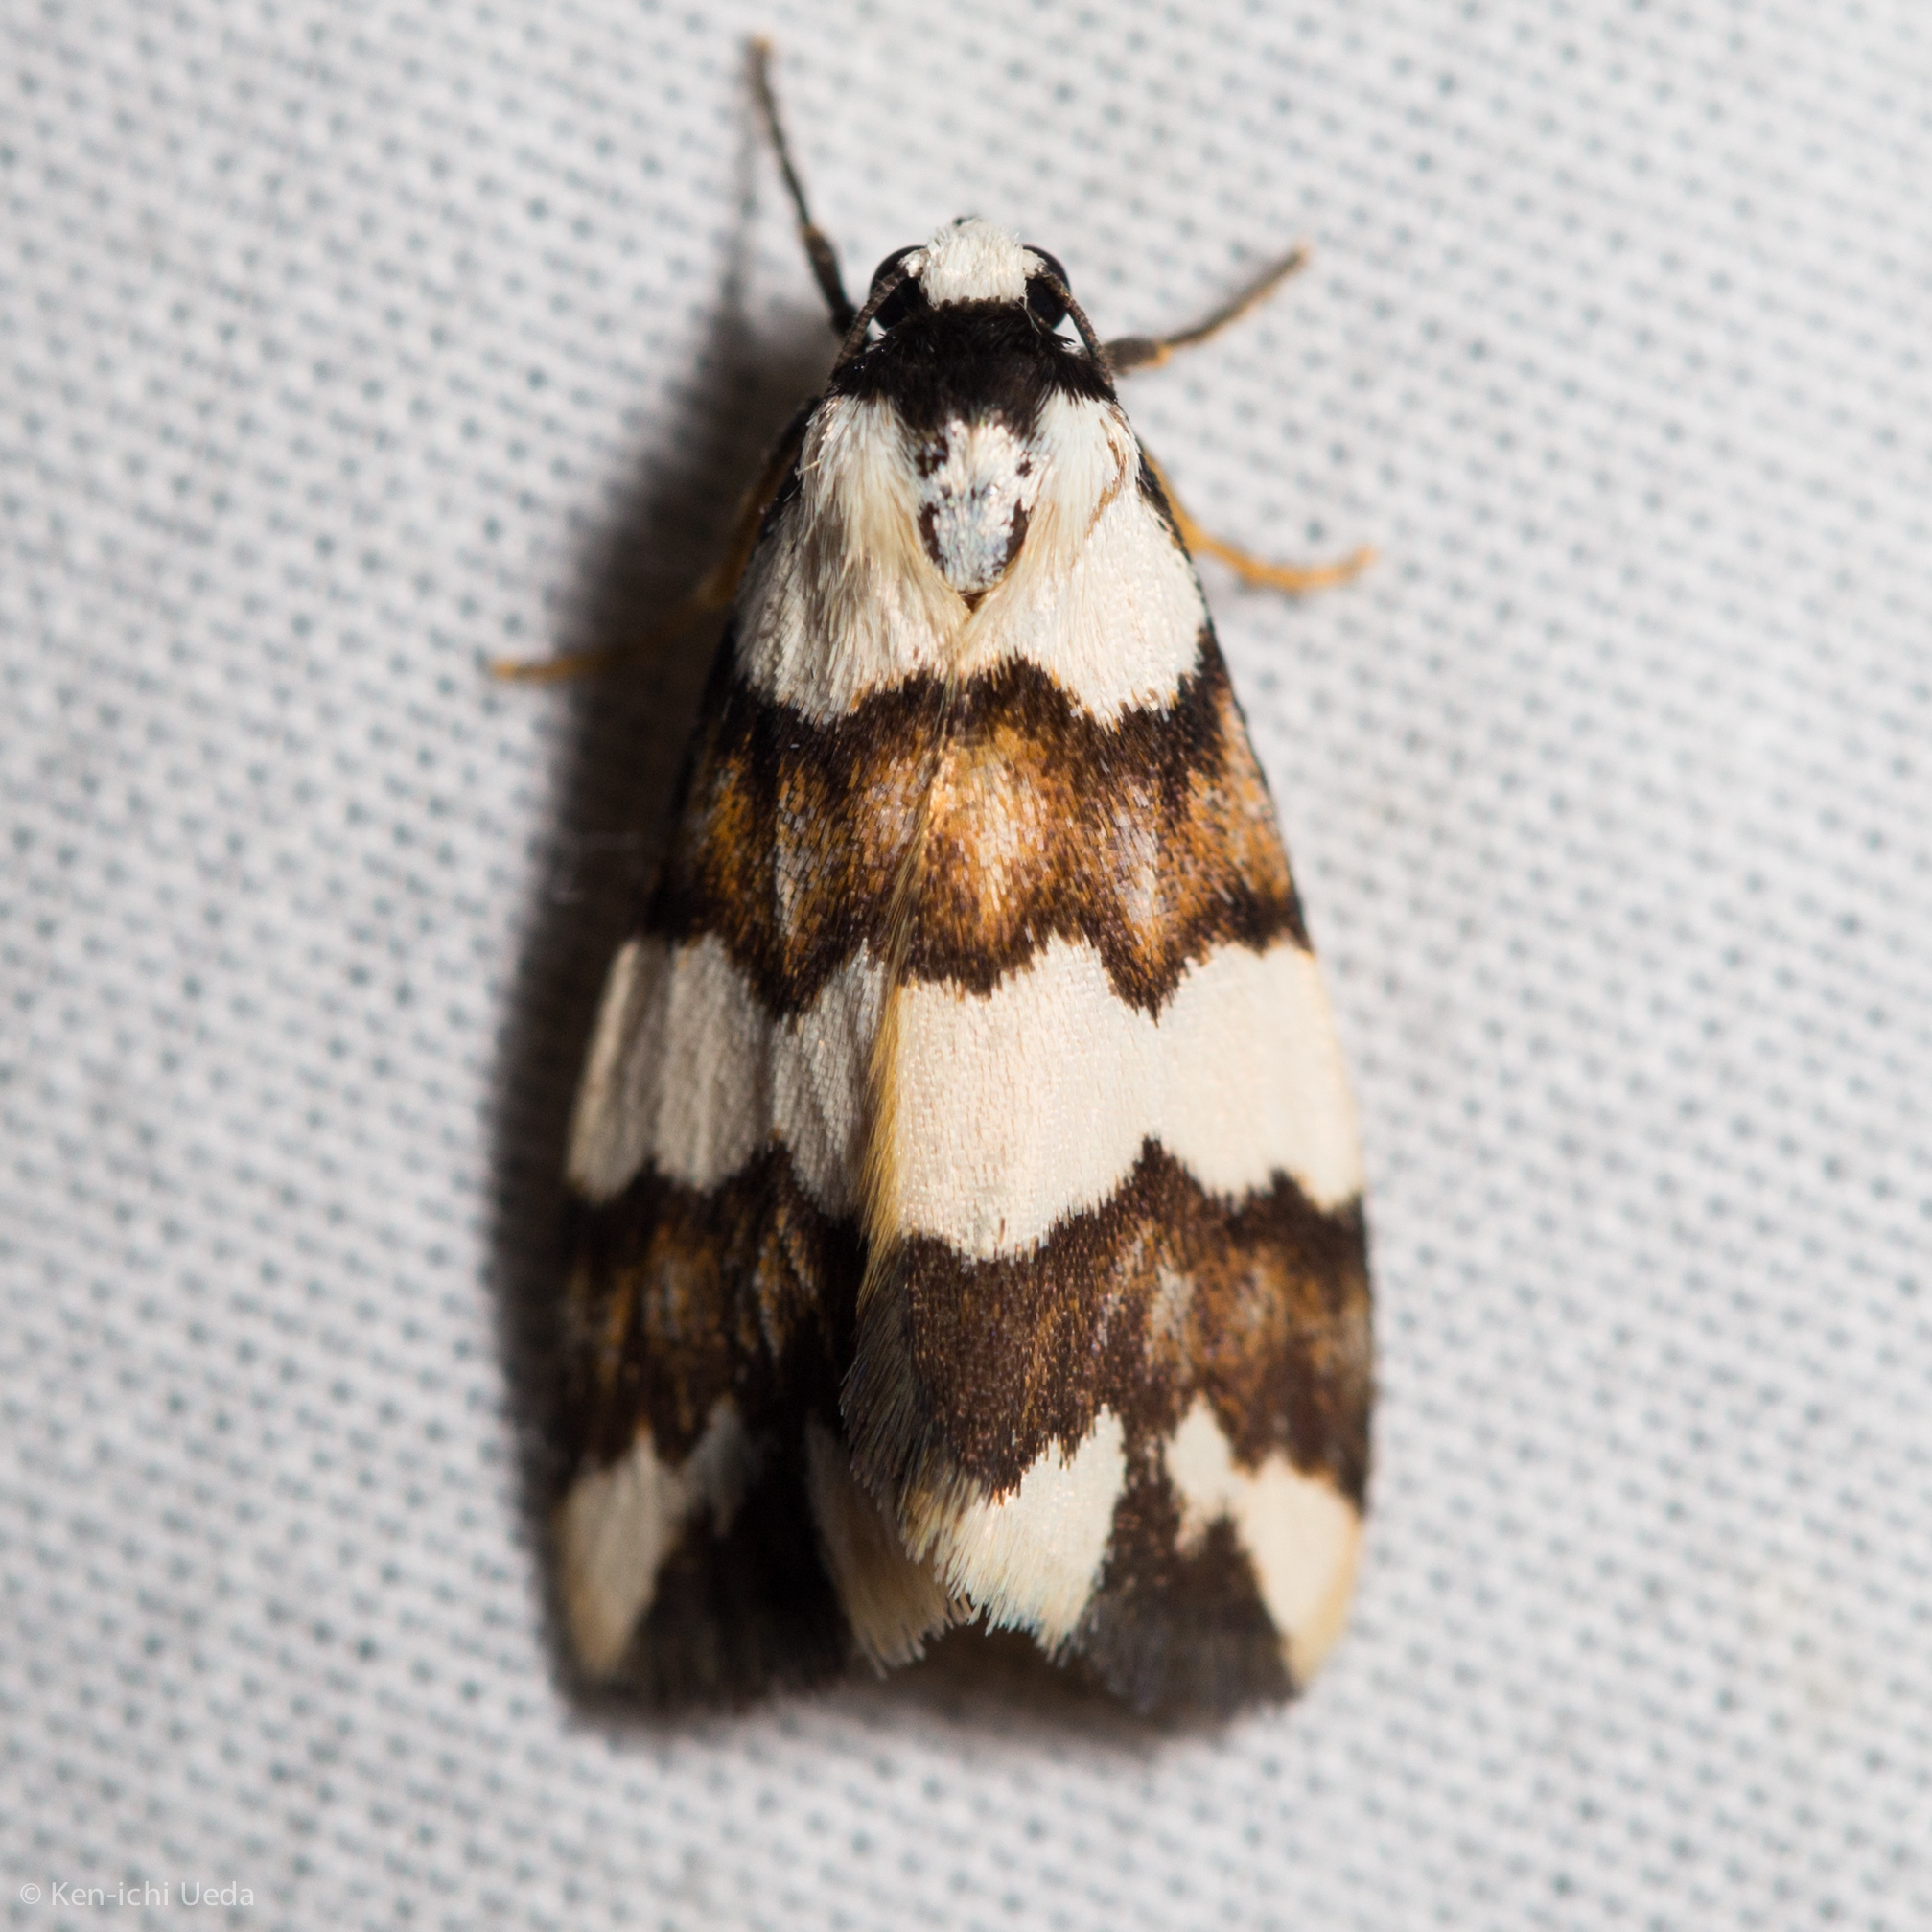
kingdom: Animalia
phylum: Arthropoda
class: Insecta
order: Lepidoptera
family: Erebidae
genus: Termessa
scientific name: Termessa gratiosa
